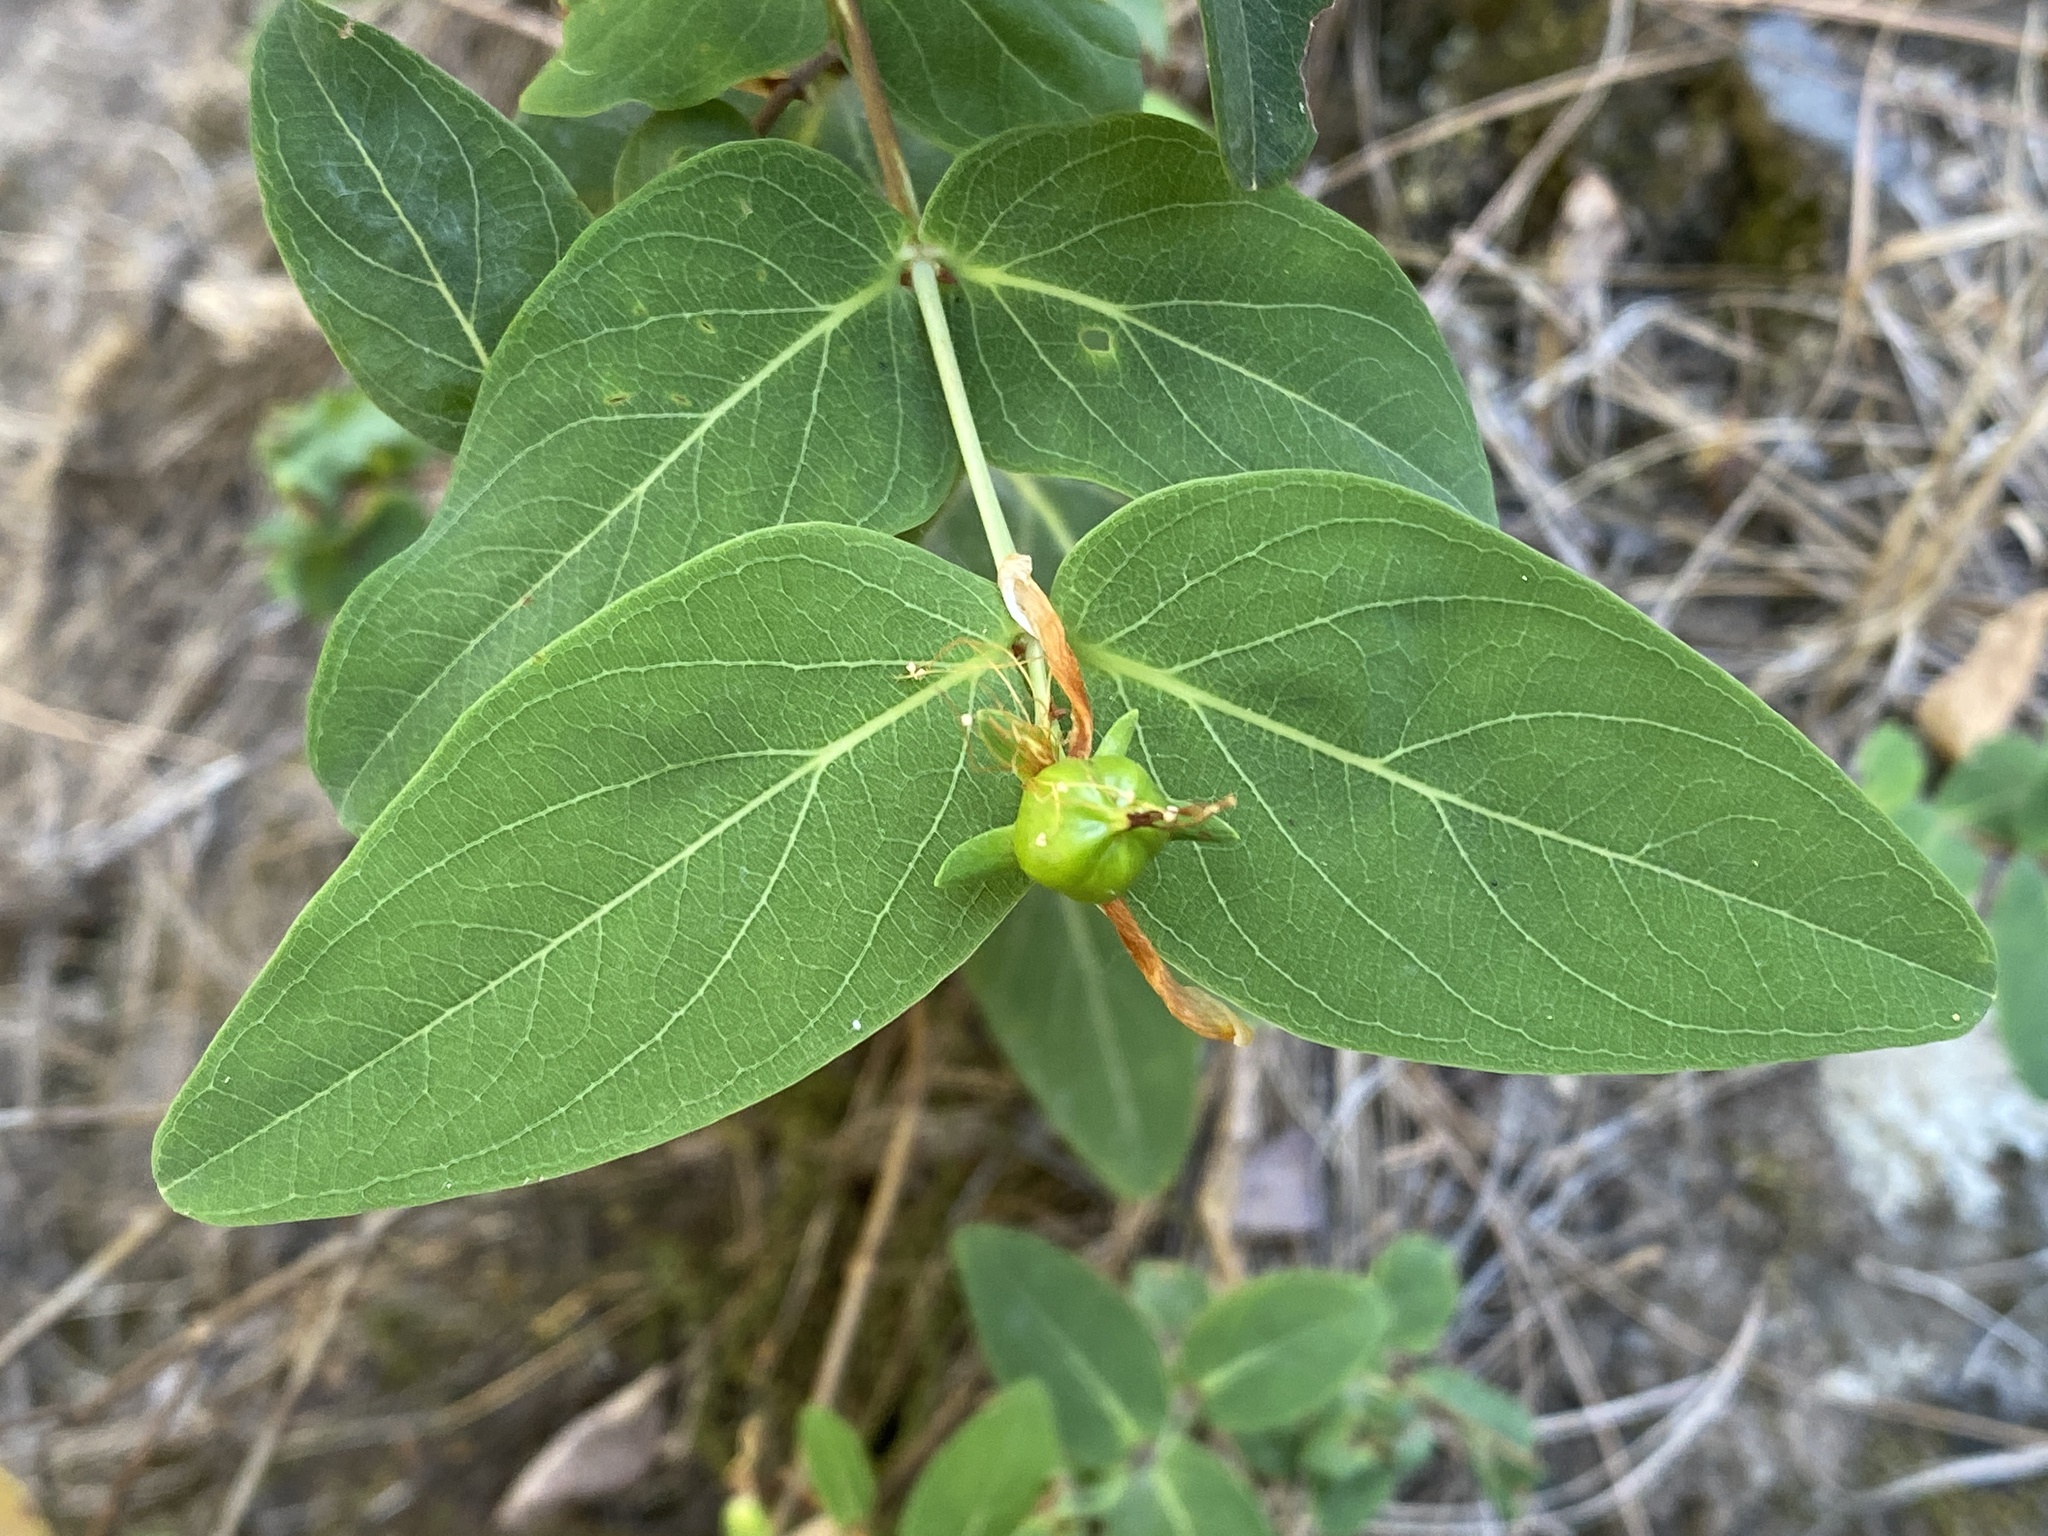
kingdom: Plantae
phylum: Tracheophyta
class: Magnoliopsida
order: Malpighiales
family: Hypericaceae
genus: Hypericum
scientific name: Hypericum grandifolium
